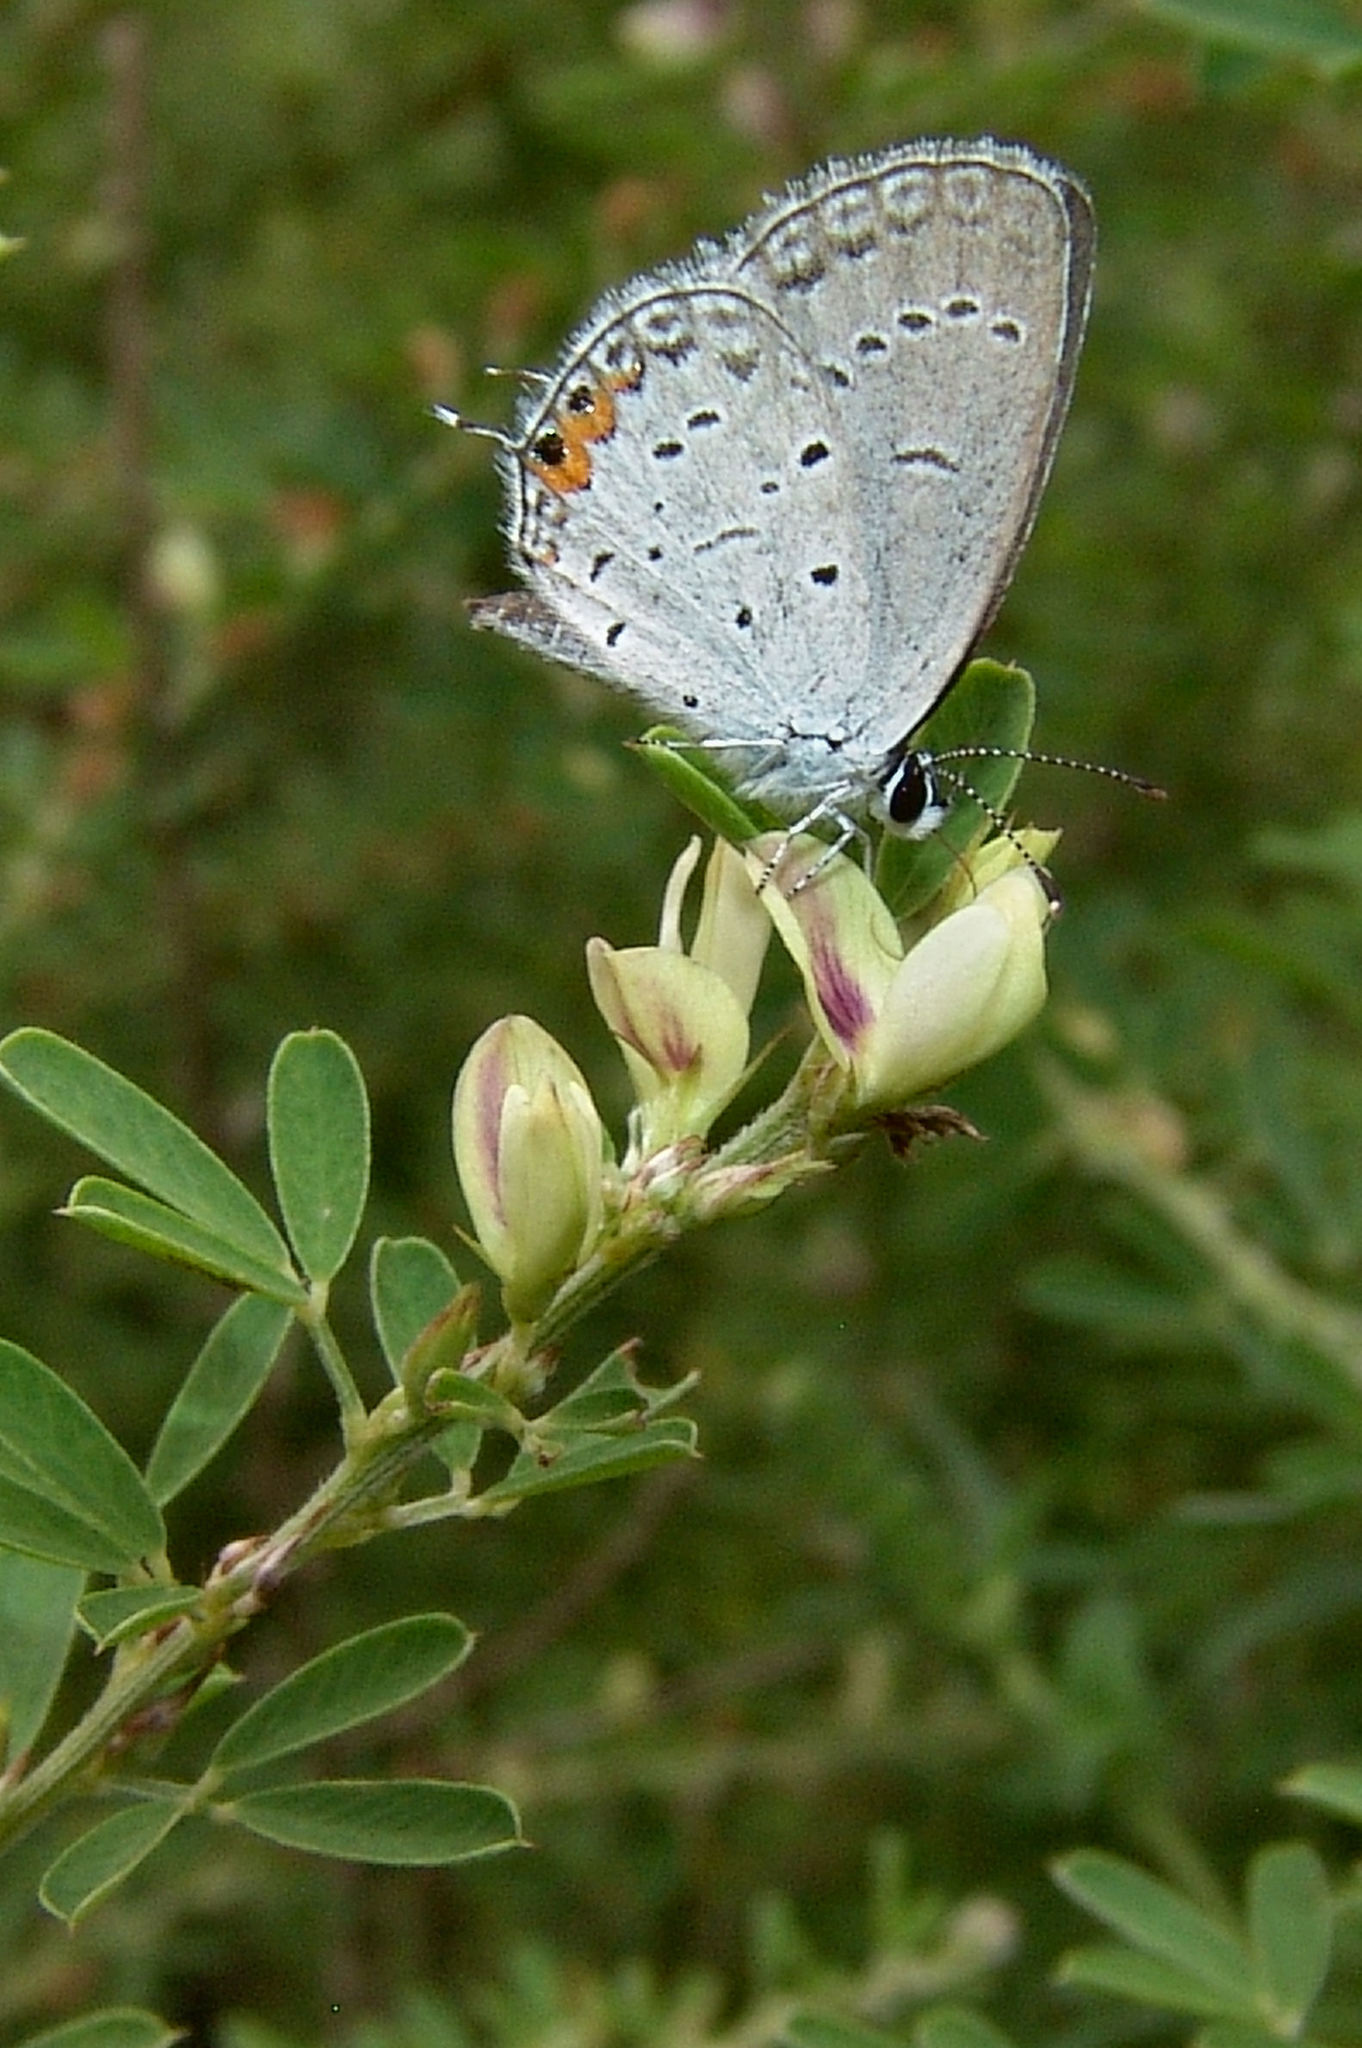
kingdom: Animalia
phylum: Arthropoda
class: Insecta
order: Lepidoptera
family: Lycaenidae
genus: Elkalyce
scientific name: Elkalyce comyntas
